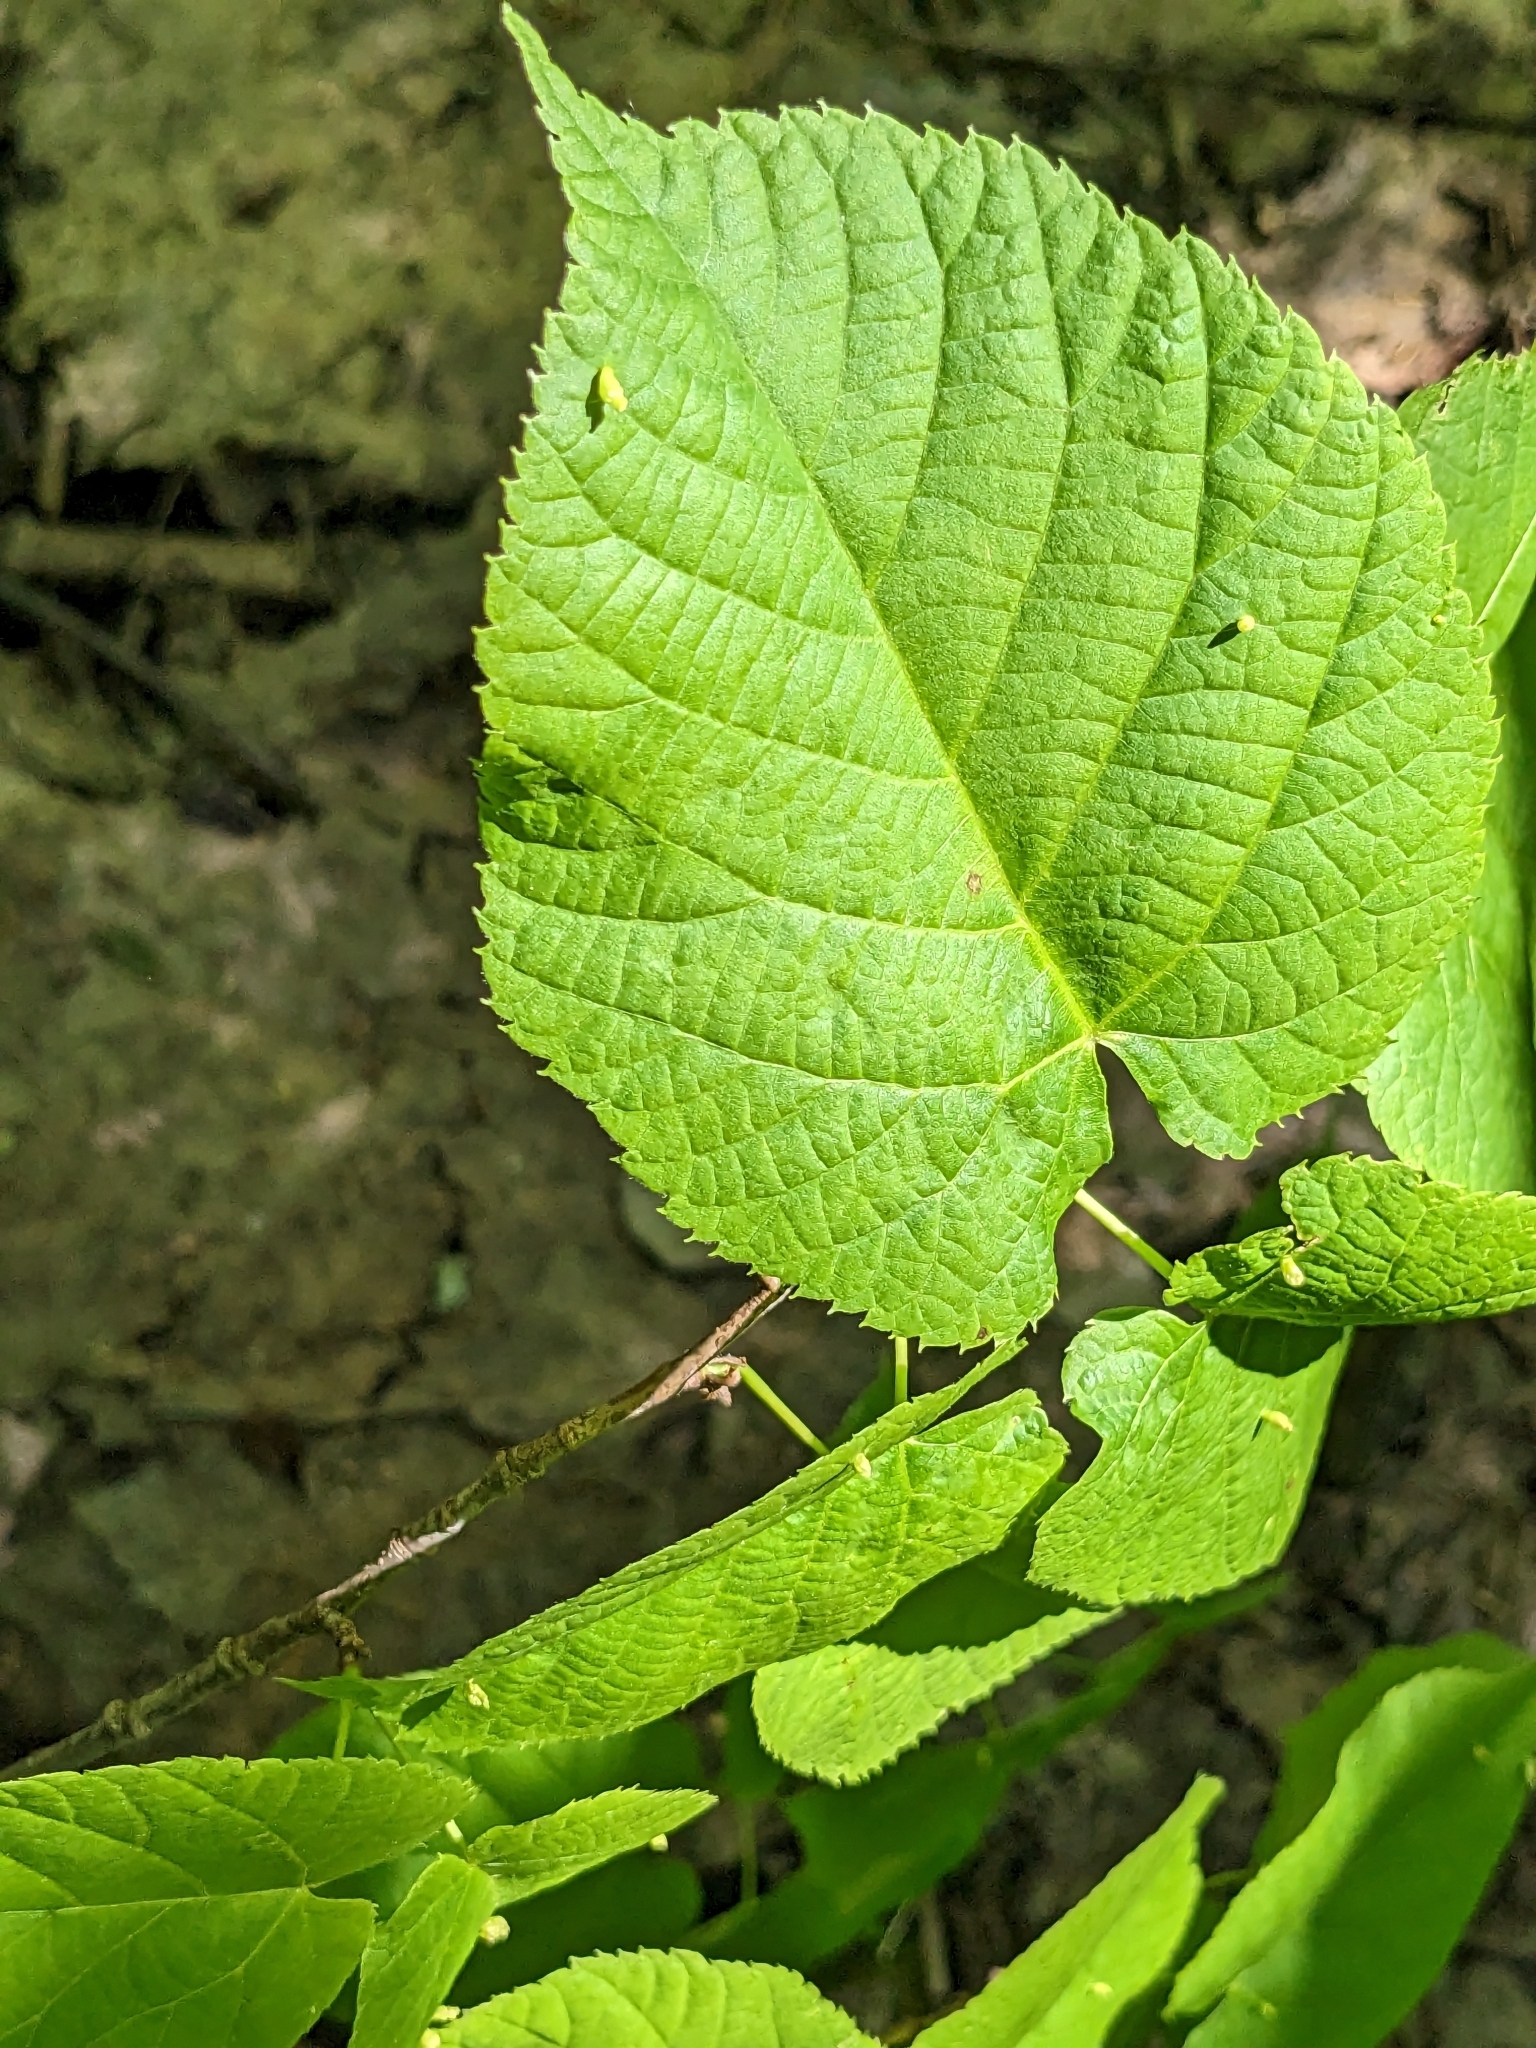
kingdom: Plantae
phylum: Tracheophyta
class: Magnoliopsida
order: Malvales
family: Malvaceae
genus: Tilia
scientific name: Tilia americana
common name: Basswood
